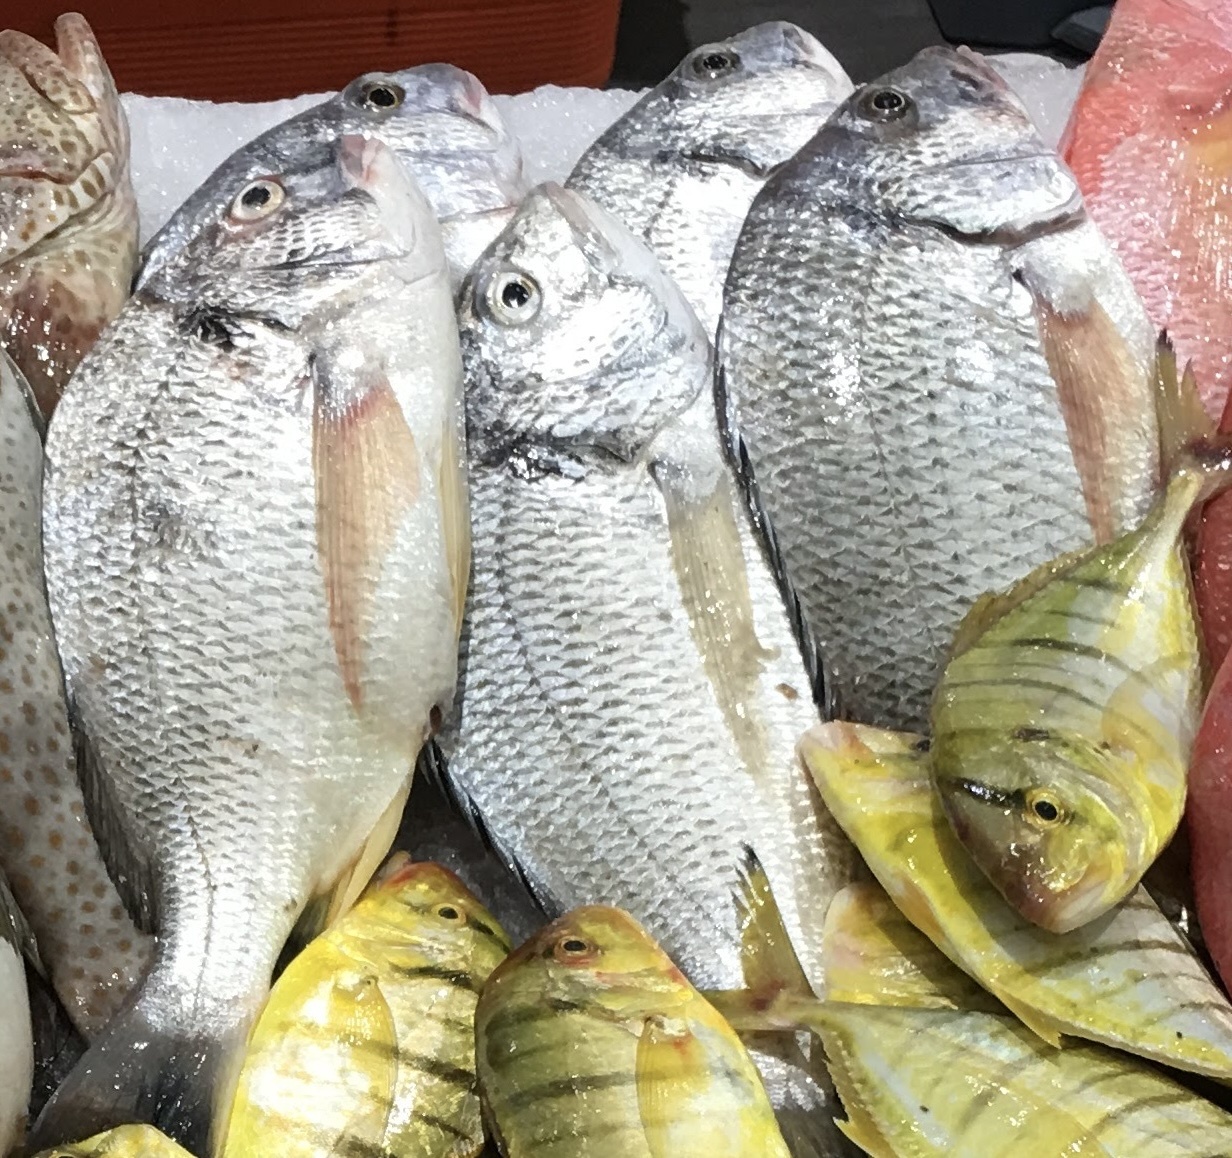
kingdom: Animalia
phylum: Chordata
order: Perciformes
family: Sparidae
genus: Acanthopagrus
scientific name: Acanthopagrus arabicus
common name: Arabian yellowfin seabream
